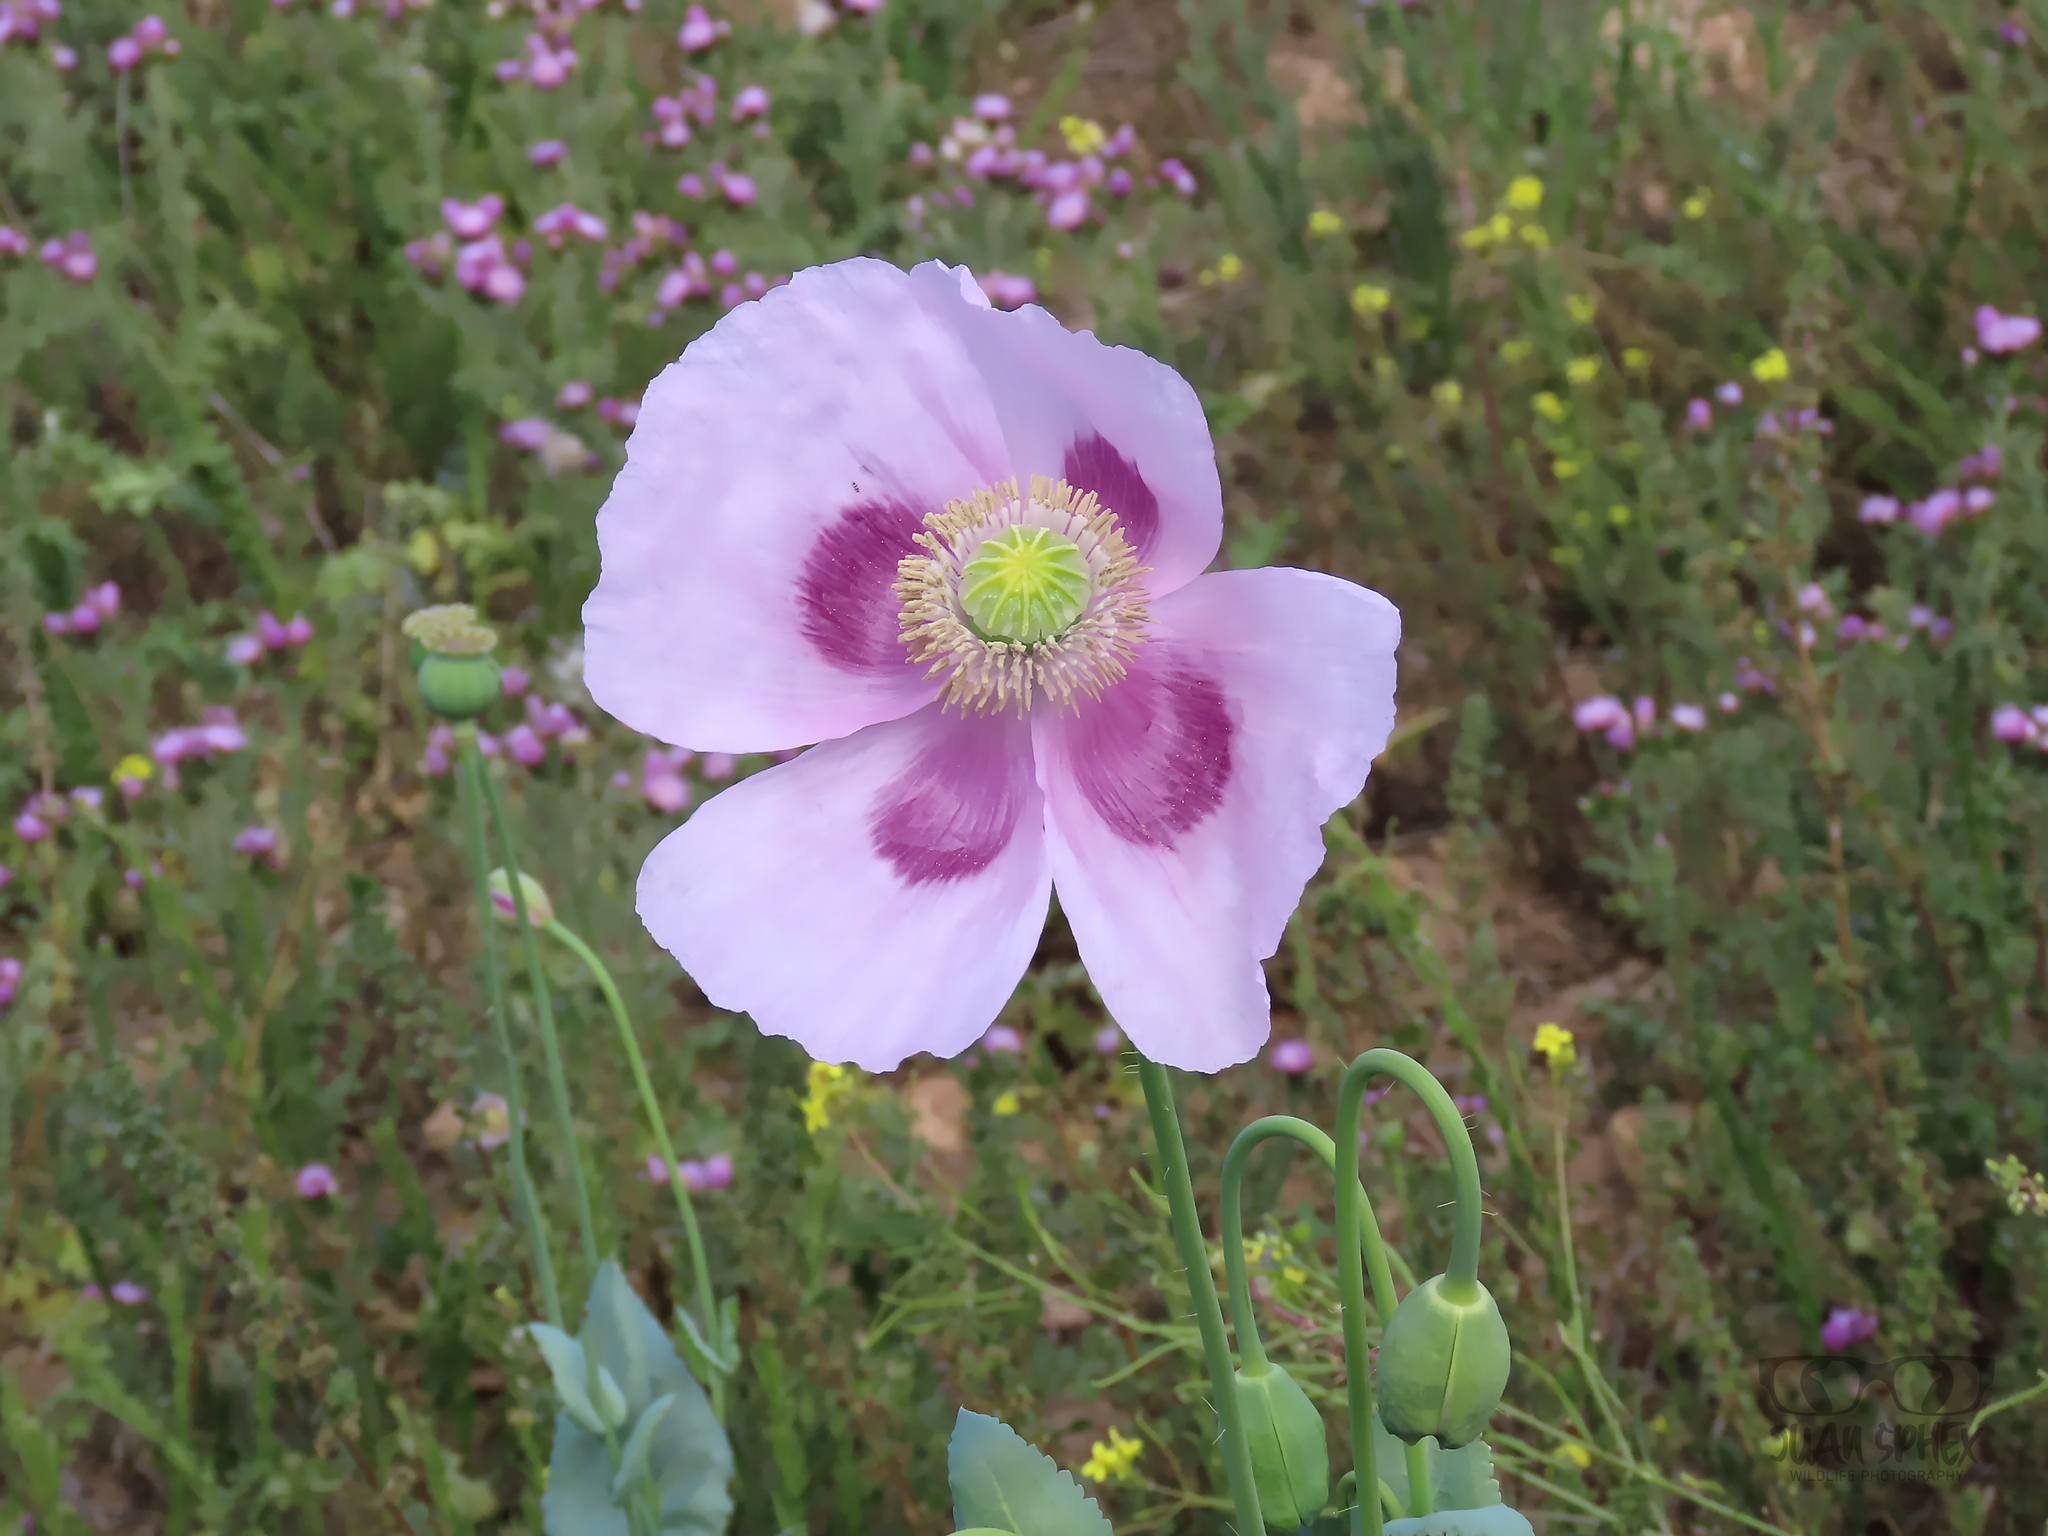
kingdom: Plantae
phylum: Tracheophyta
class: Magnoliopsida
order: Ranunculales
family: Papaveraceae
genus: Papaver
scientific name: Papaver somniferum
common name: Opium poppy
